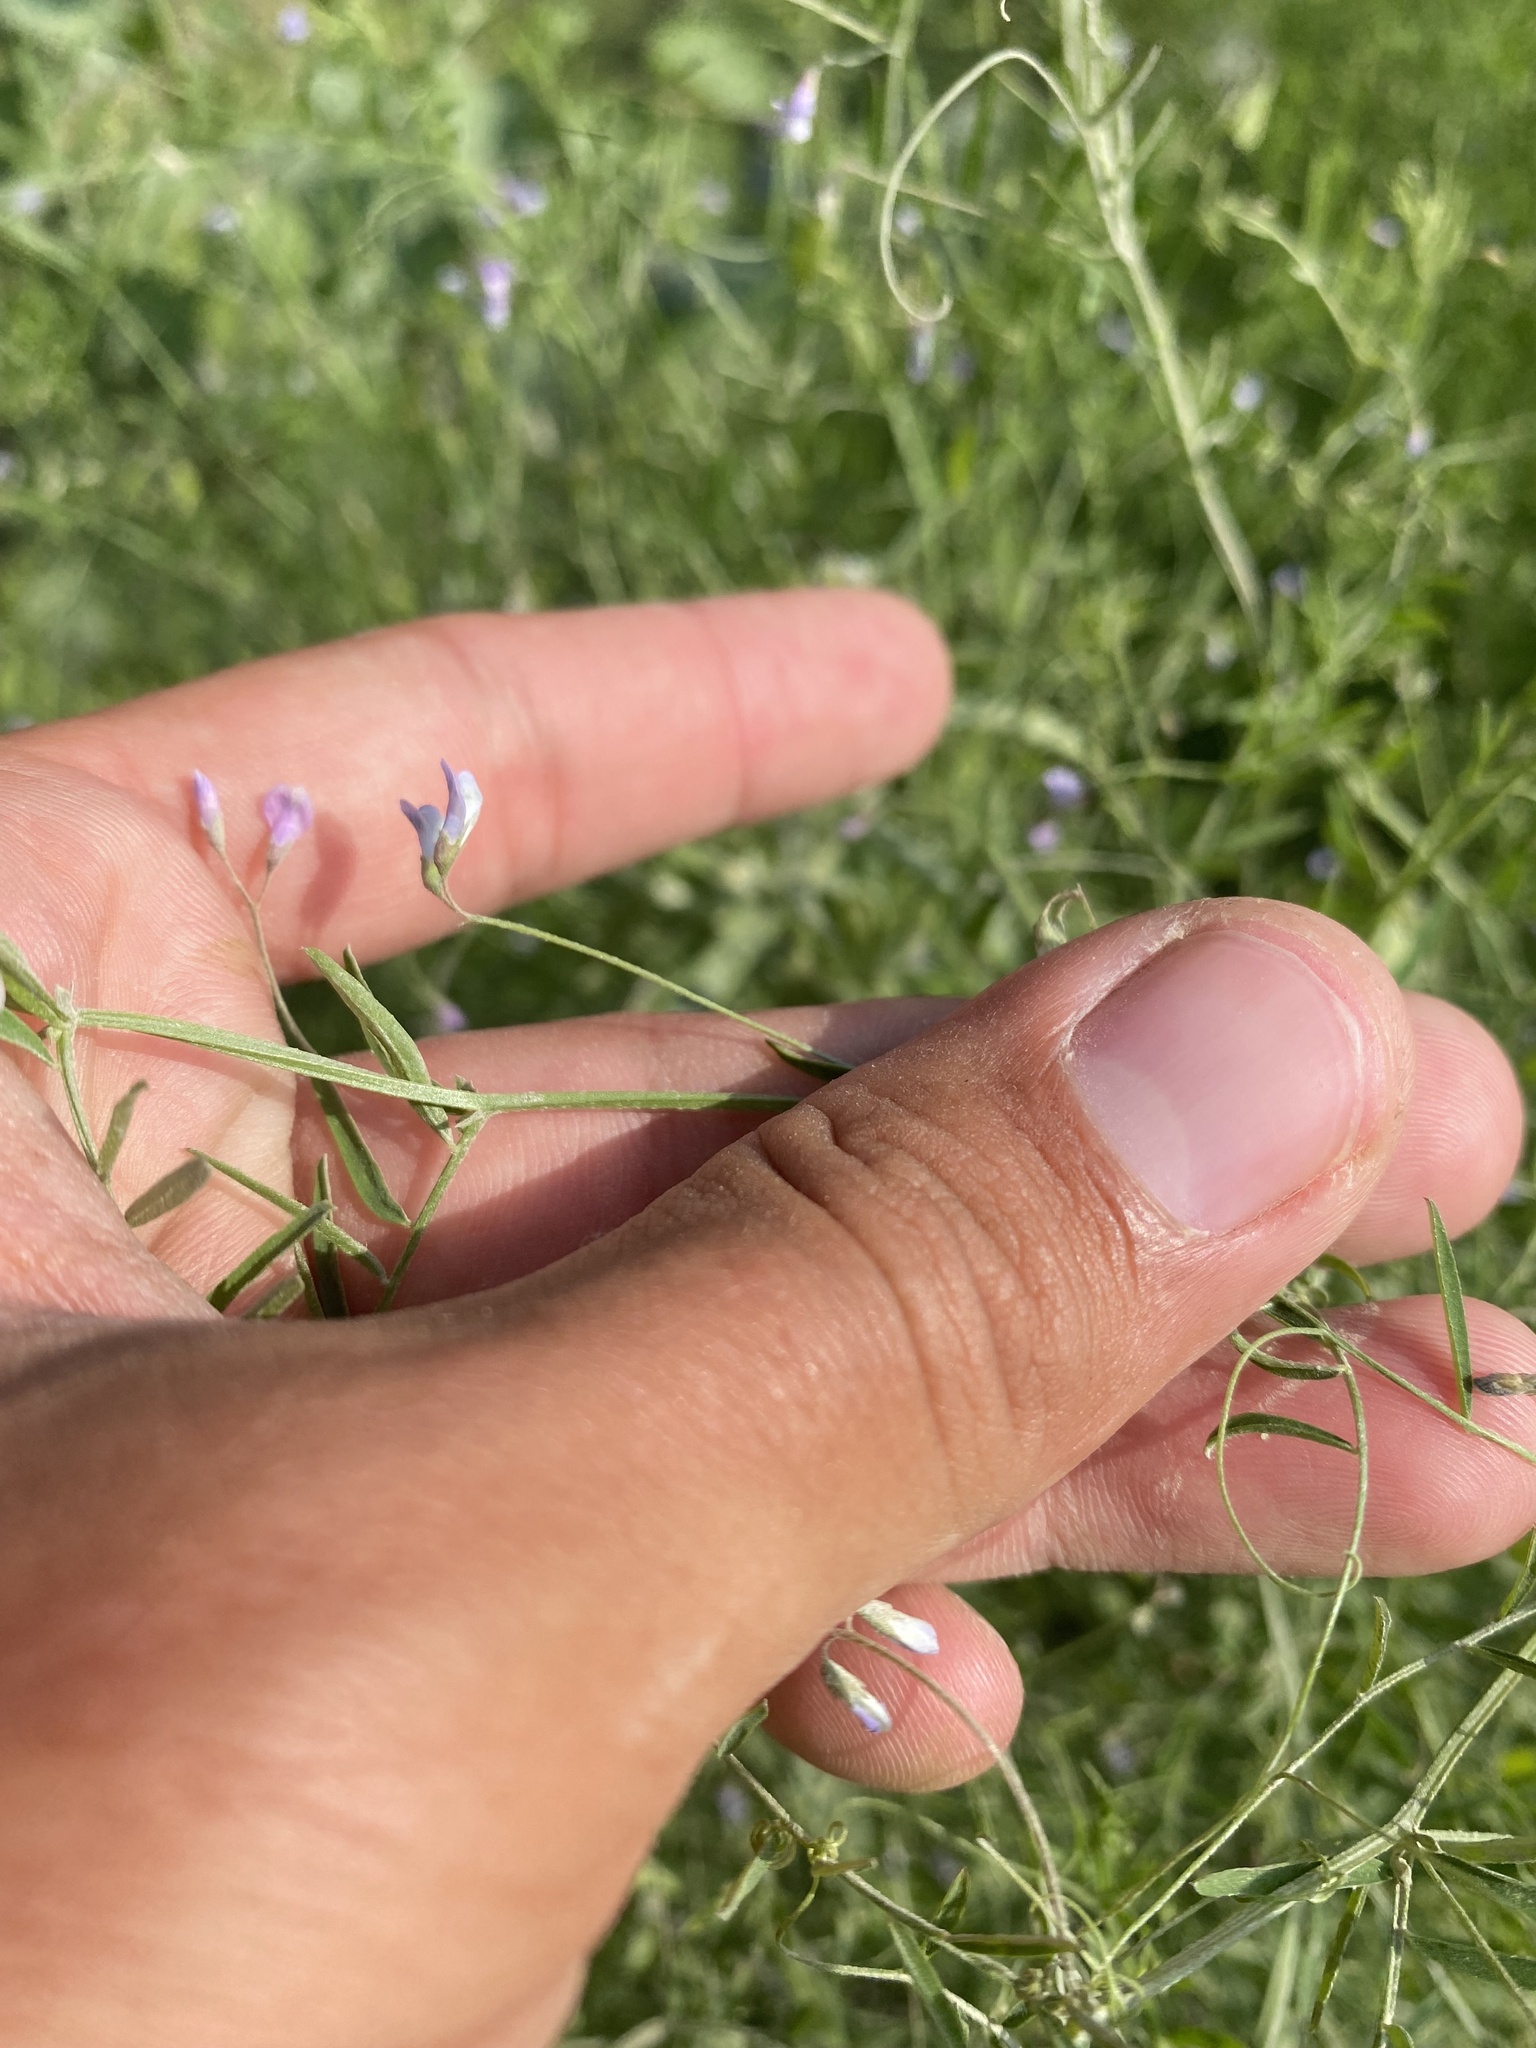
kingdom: Plantae
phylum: Tracheophyta
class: Magnoliopsida
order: Fabales
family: Fabaceae
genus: Vicia
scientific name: Vicia tetrasperma
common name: Smooth tare
